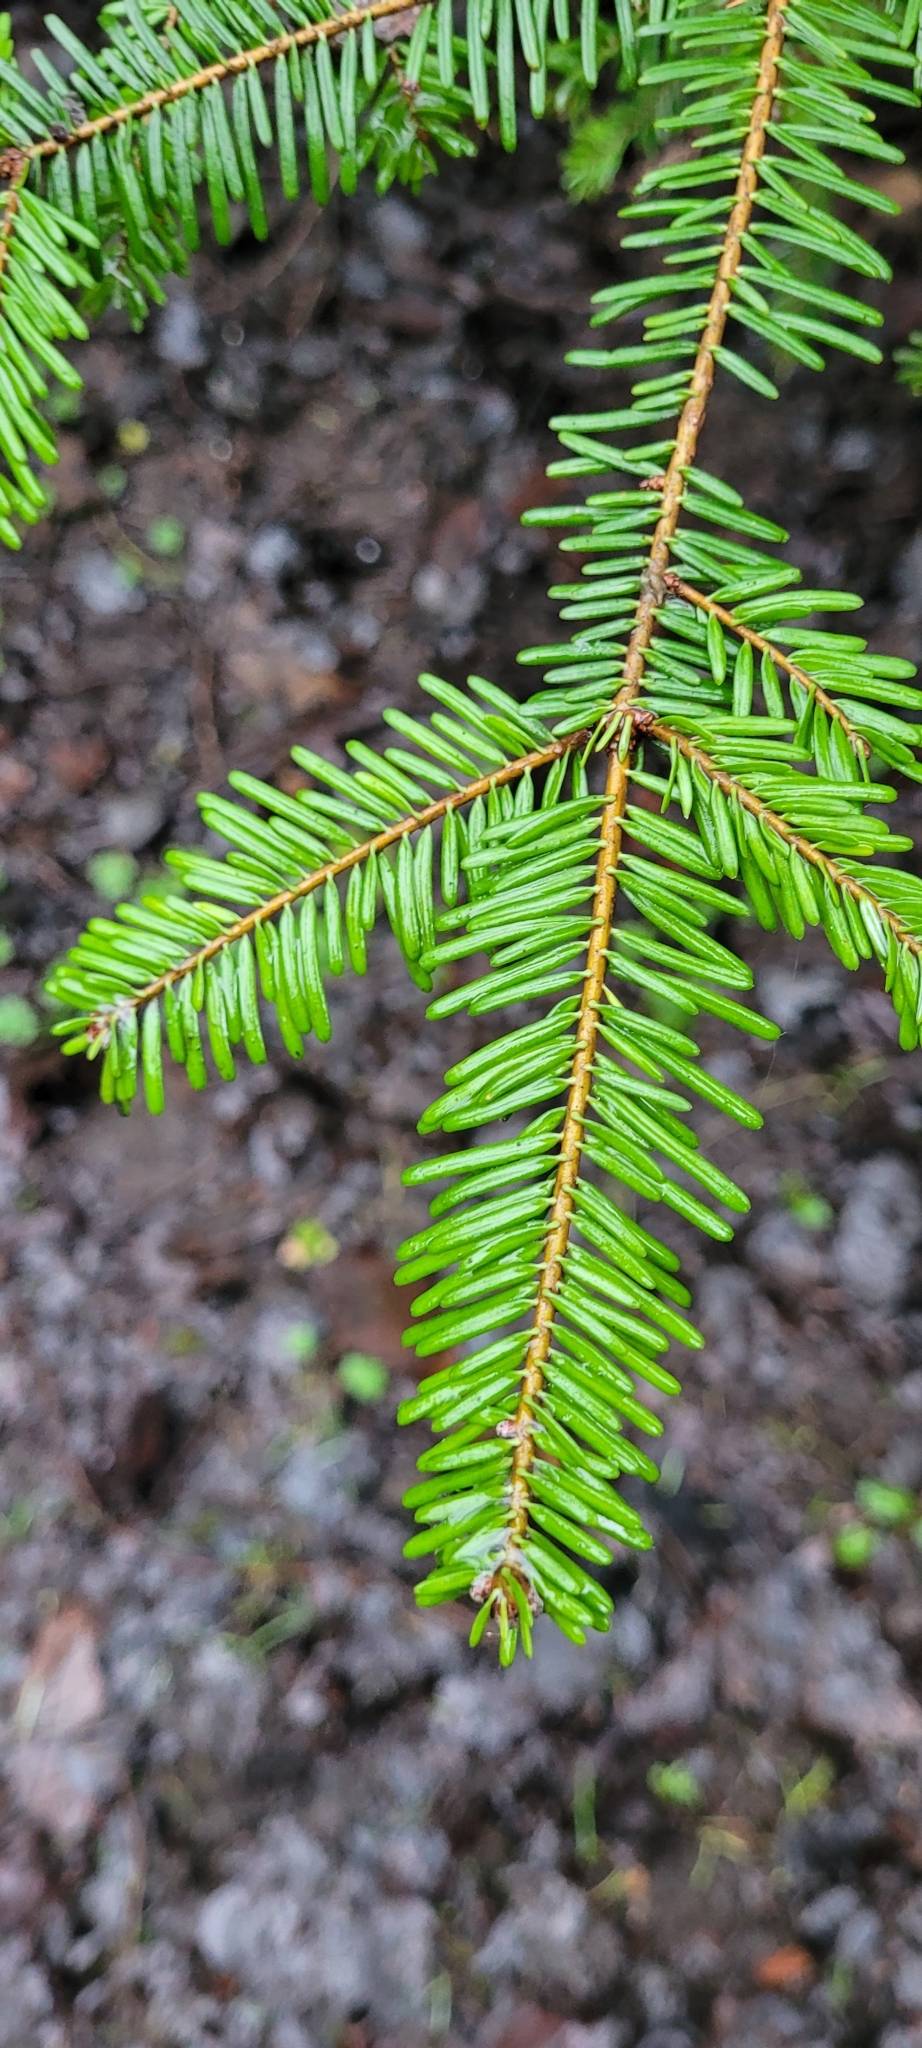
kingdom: Plantae
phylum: Tracheophyta
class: Pinopsida
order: Pinales
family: Pinaceae
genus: Abies
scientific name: Abies grandis
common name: Giant fir
